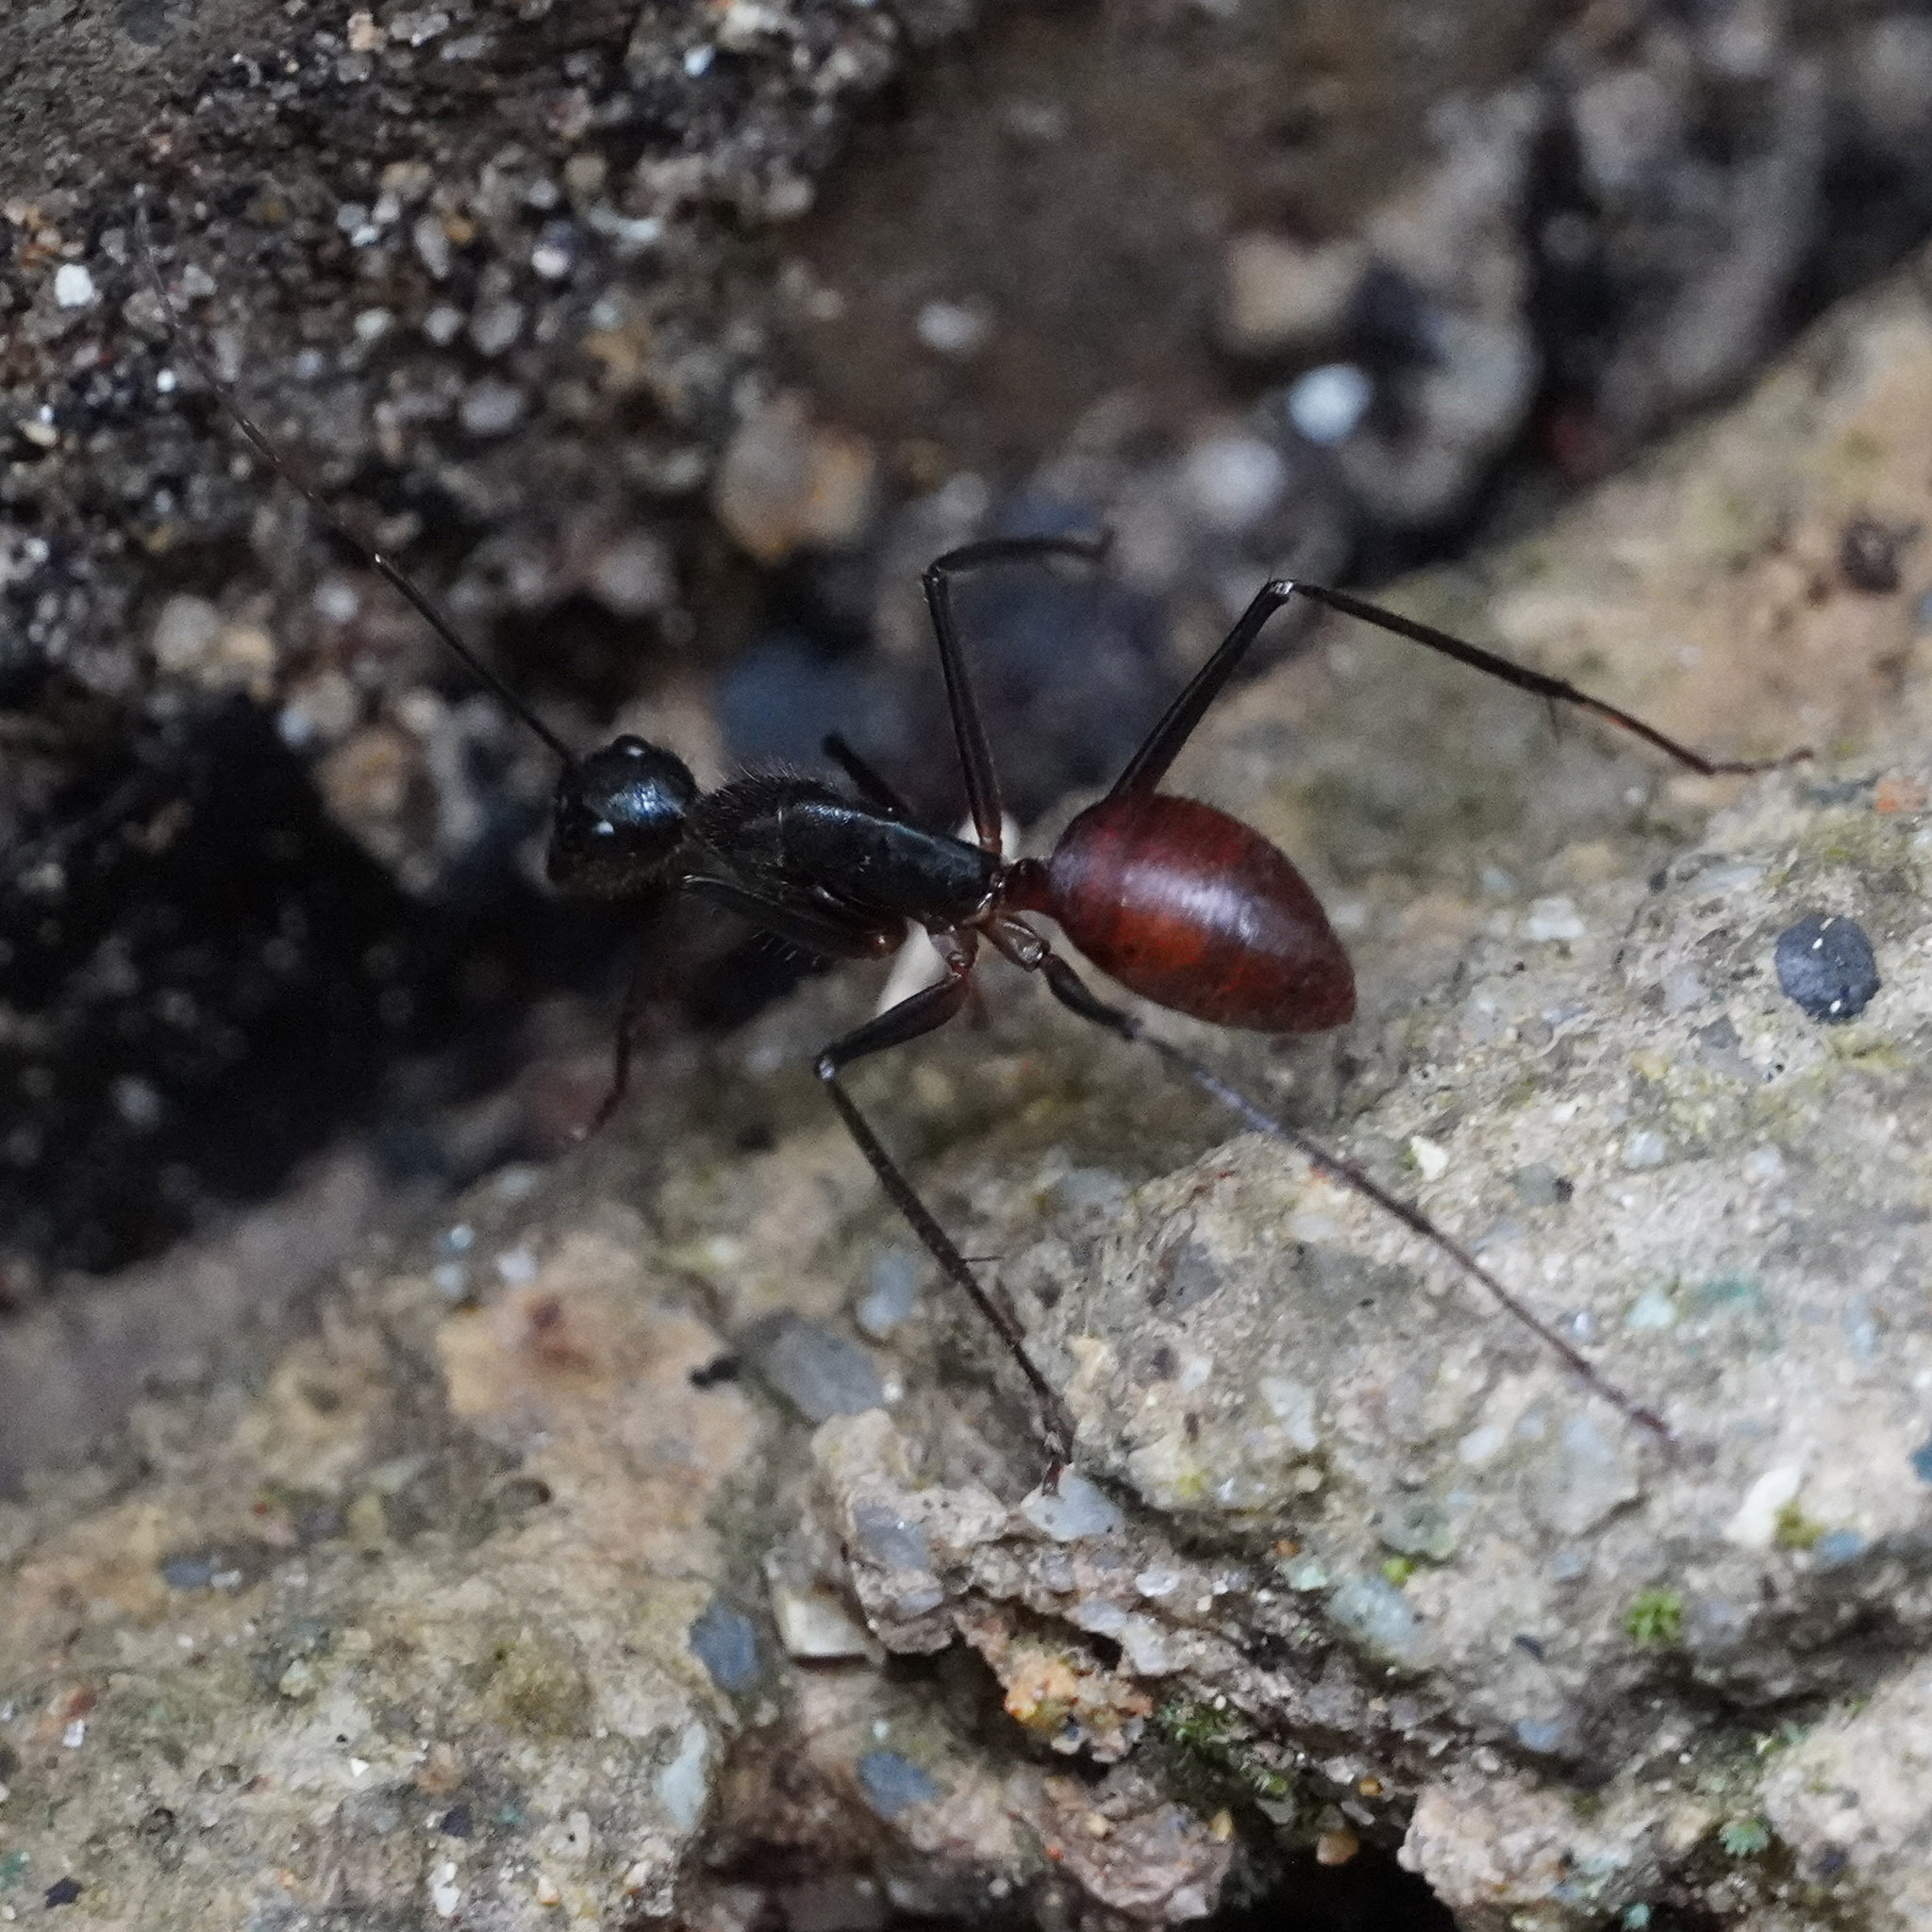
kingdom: Animalia
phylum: Arthropoda
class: Insecta
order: Hymenoptera
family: Formicidae
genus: Dinomyrmex
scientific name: Dinomyrmex
